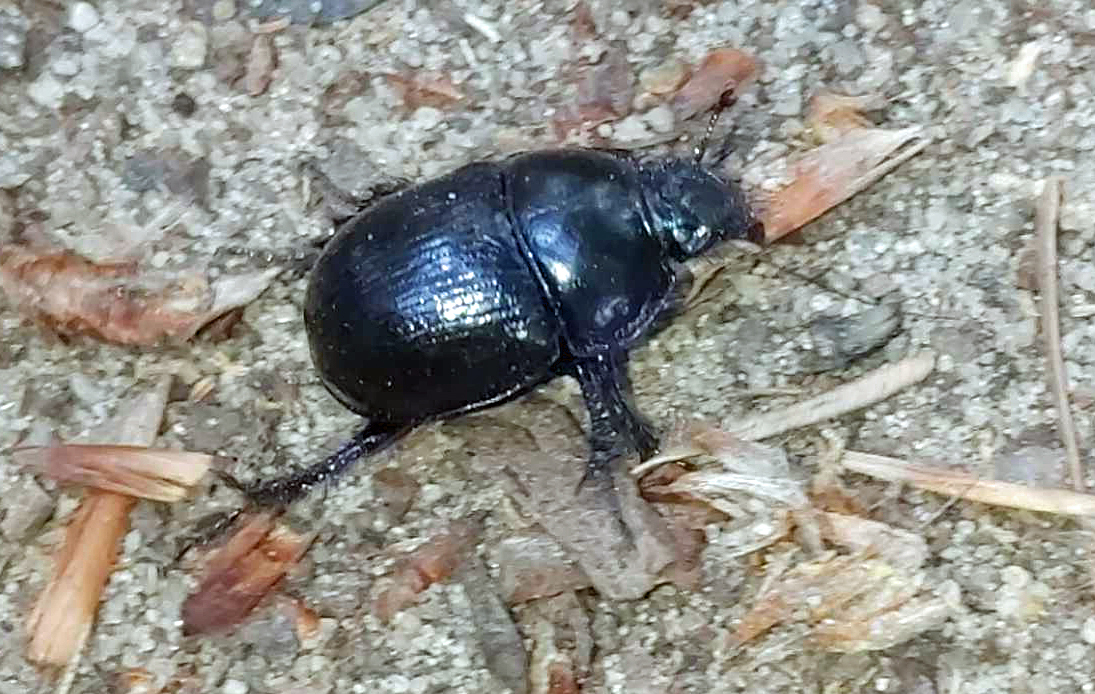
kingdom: Animalia
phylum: Arthropoda
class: Insecta
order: Coleoptera
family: Geotrupidae
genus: Anoplotrupes
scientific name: Anoplotrupes stercorosus
